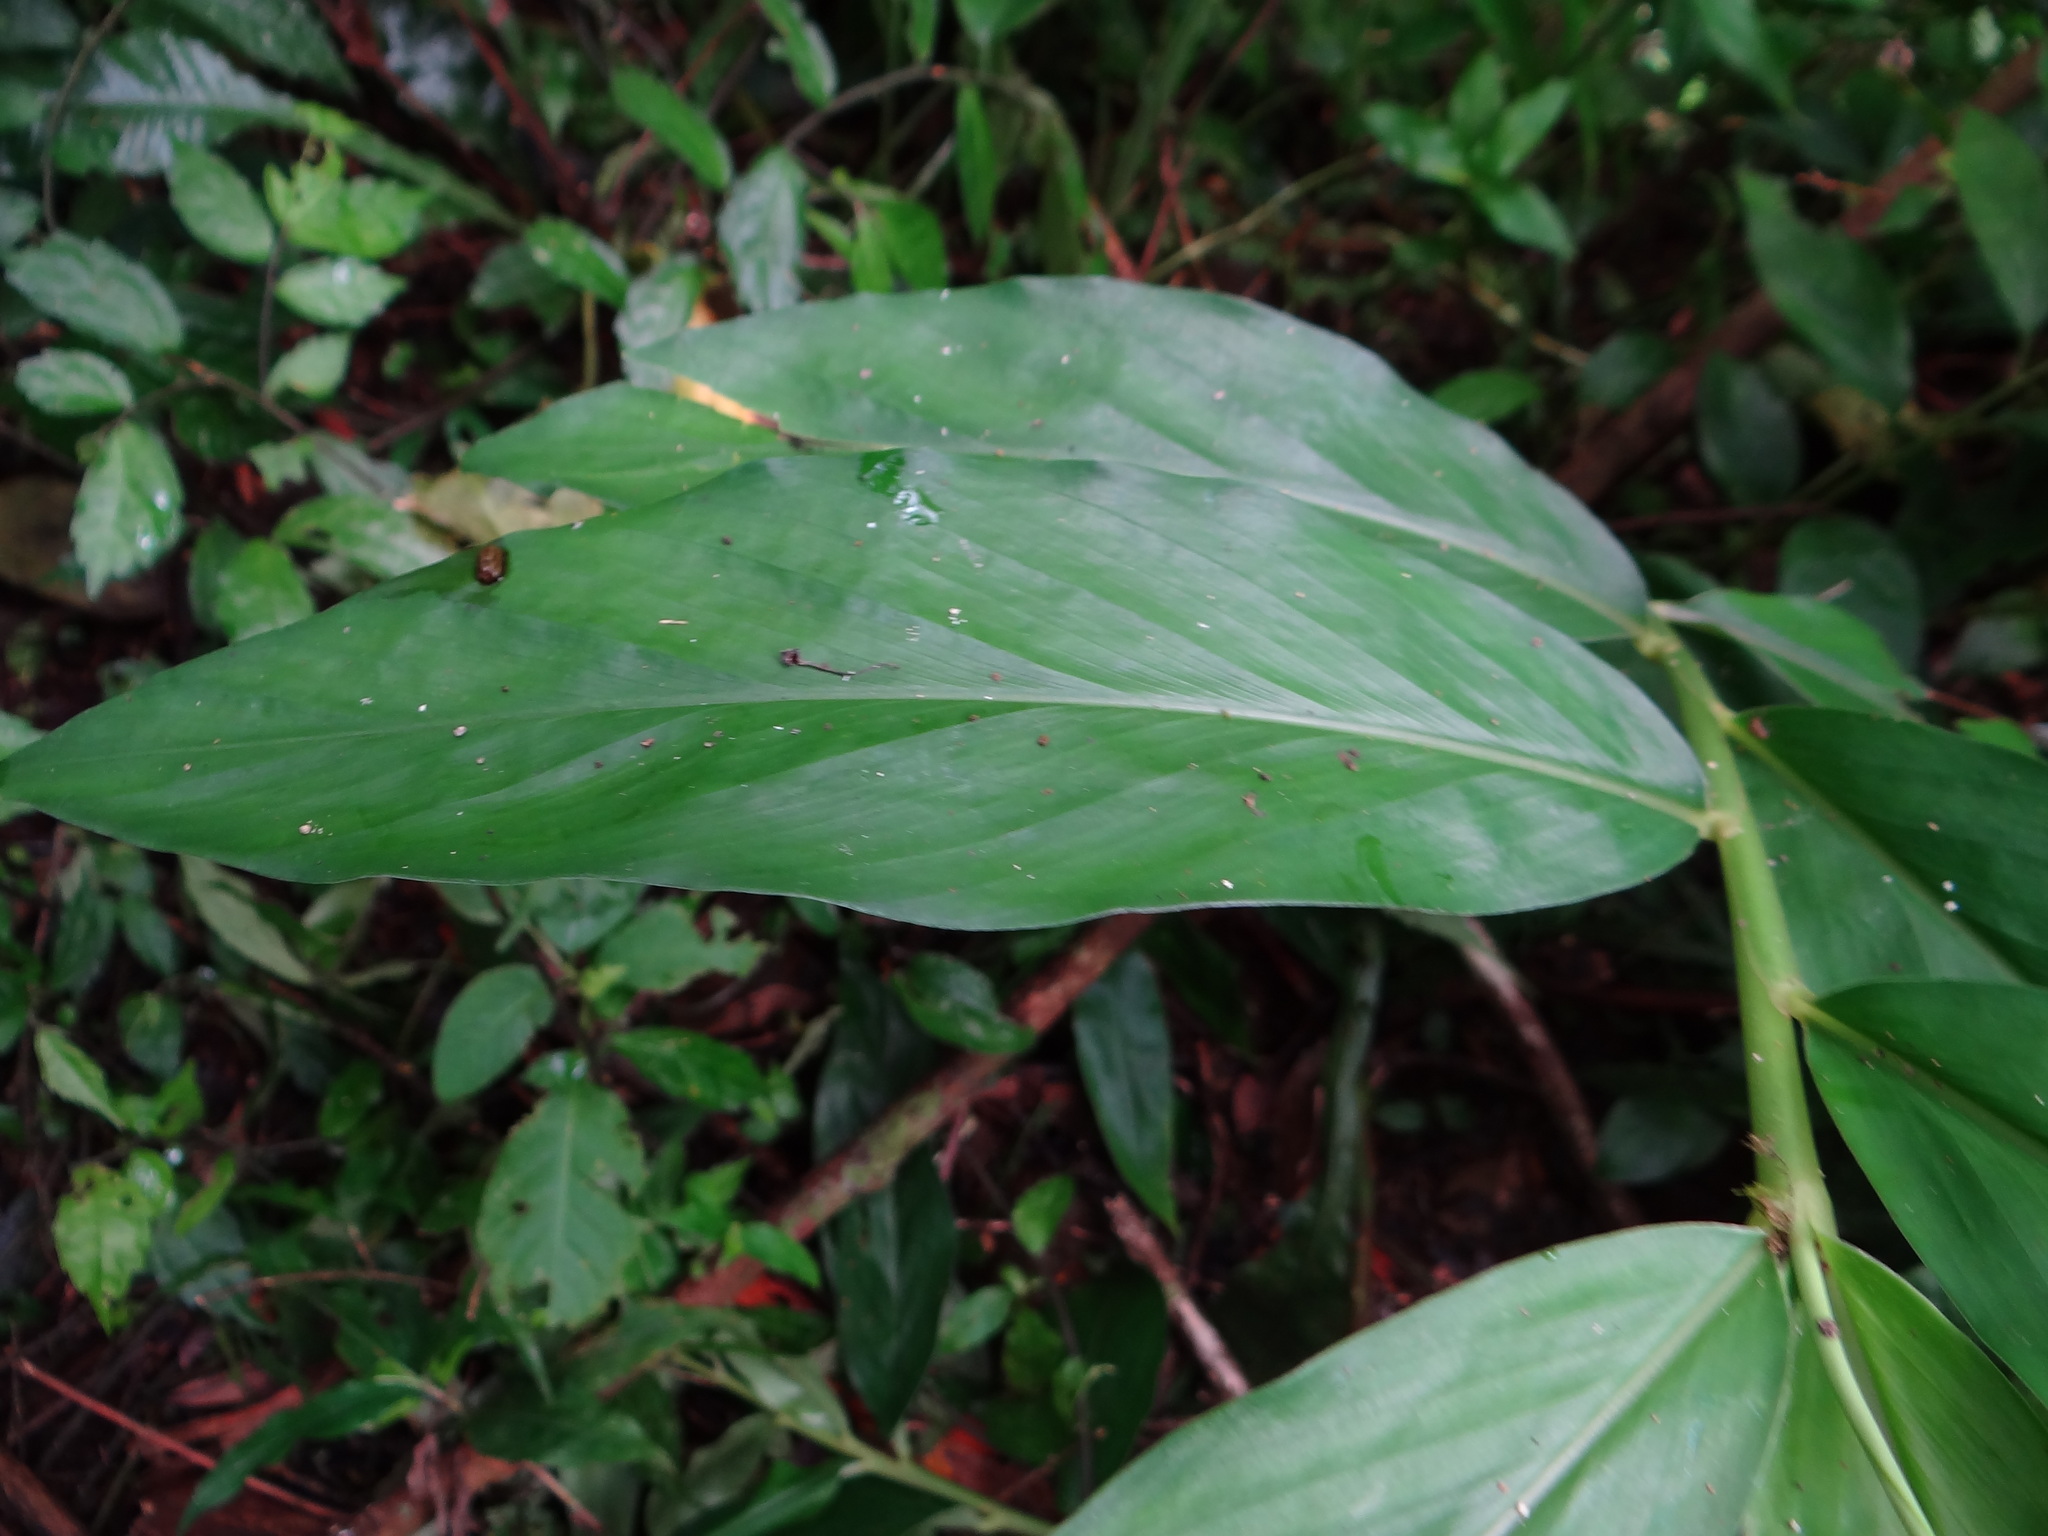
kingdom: Plantae
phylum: Tracheophyta
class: Liliopsida
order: Zingiberales
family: Zingiberaceae
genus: Zingiber
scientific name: Zingiber kawagoii
